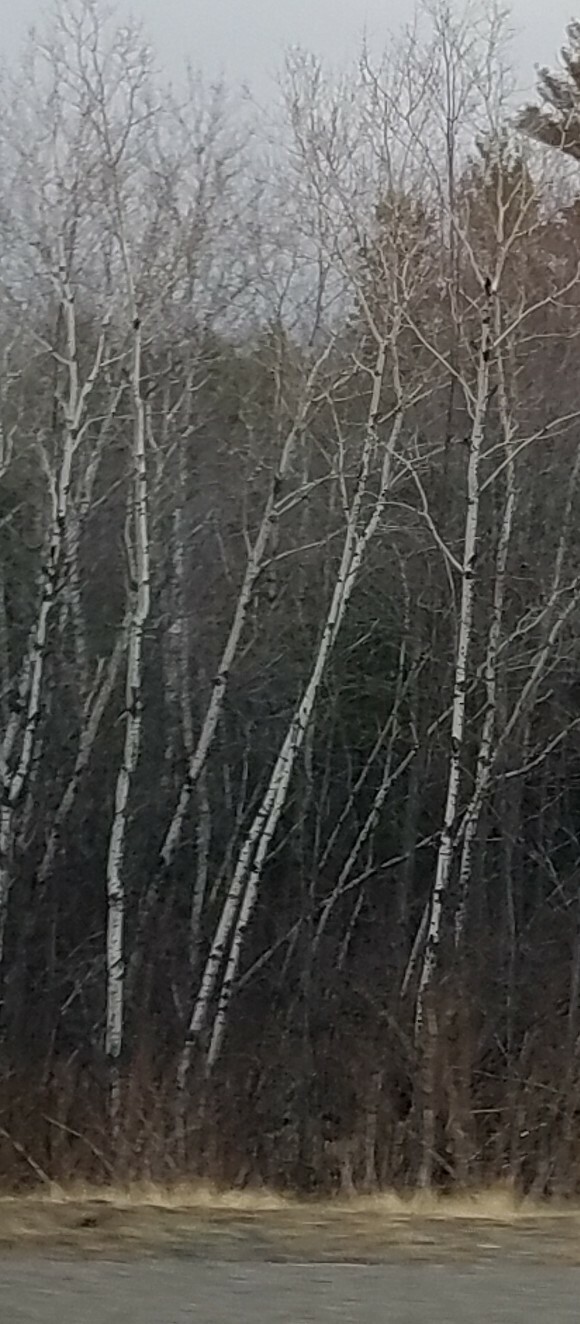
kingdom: Plantae
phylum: Tracheophyta
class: Magnoliopsida
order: Malpighiales
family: Salicaceae
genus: Populus
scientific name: Populus tremuloides
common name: Quaking aspen
